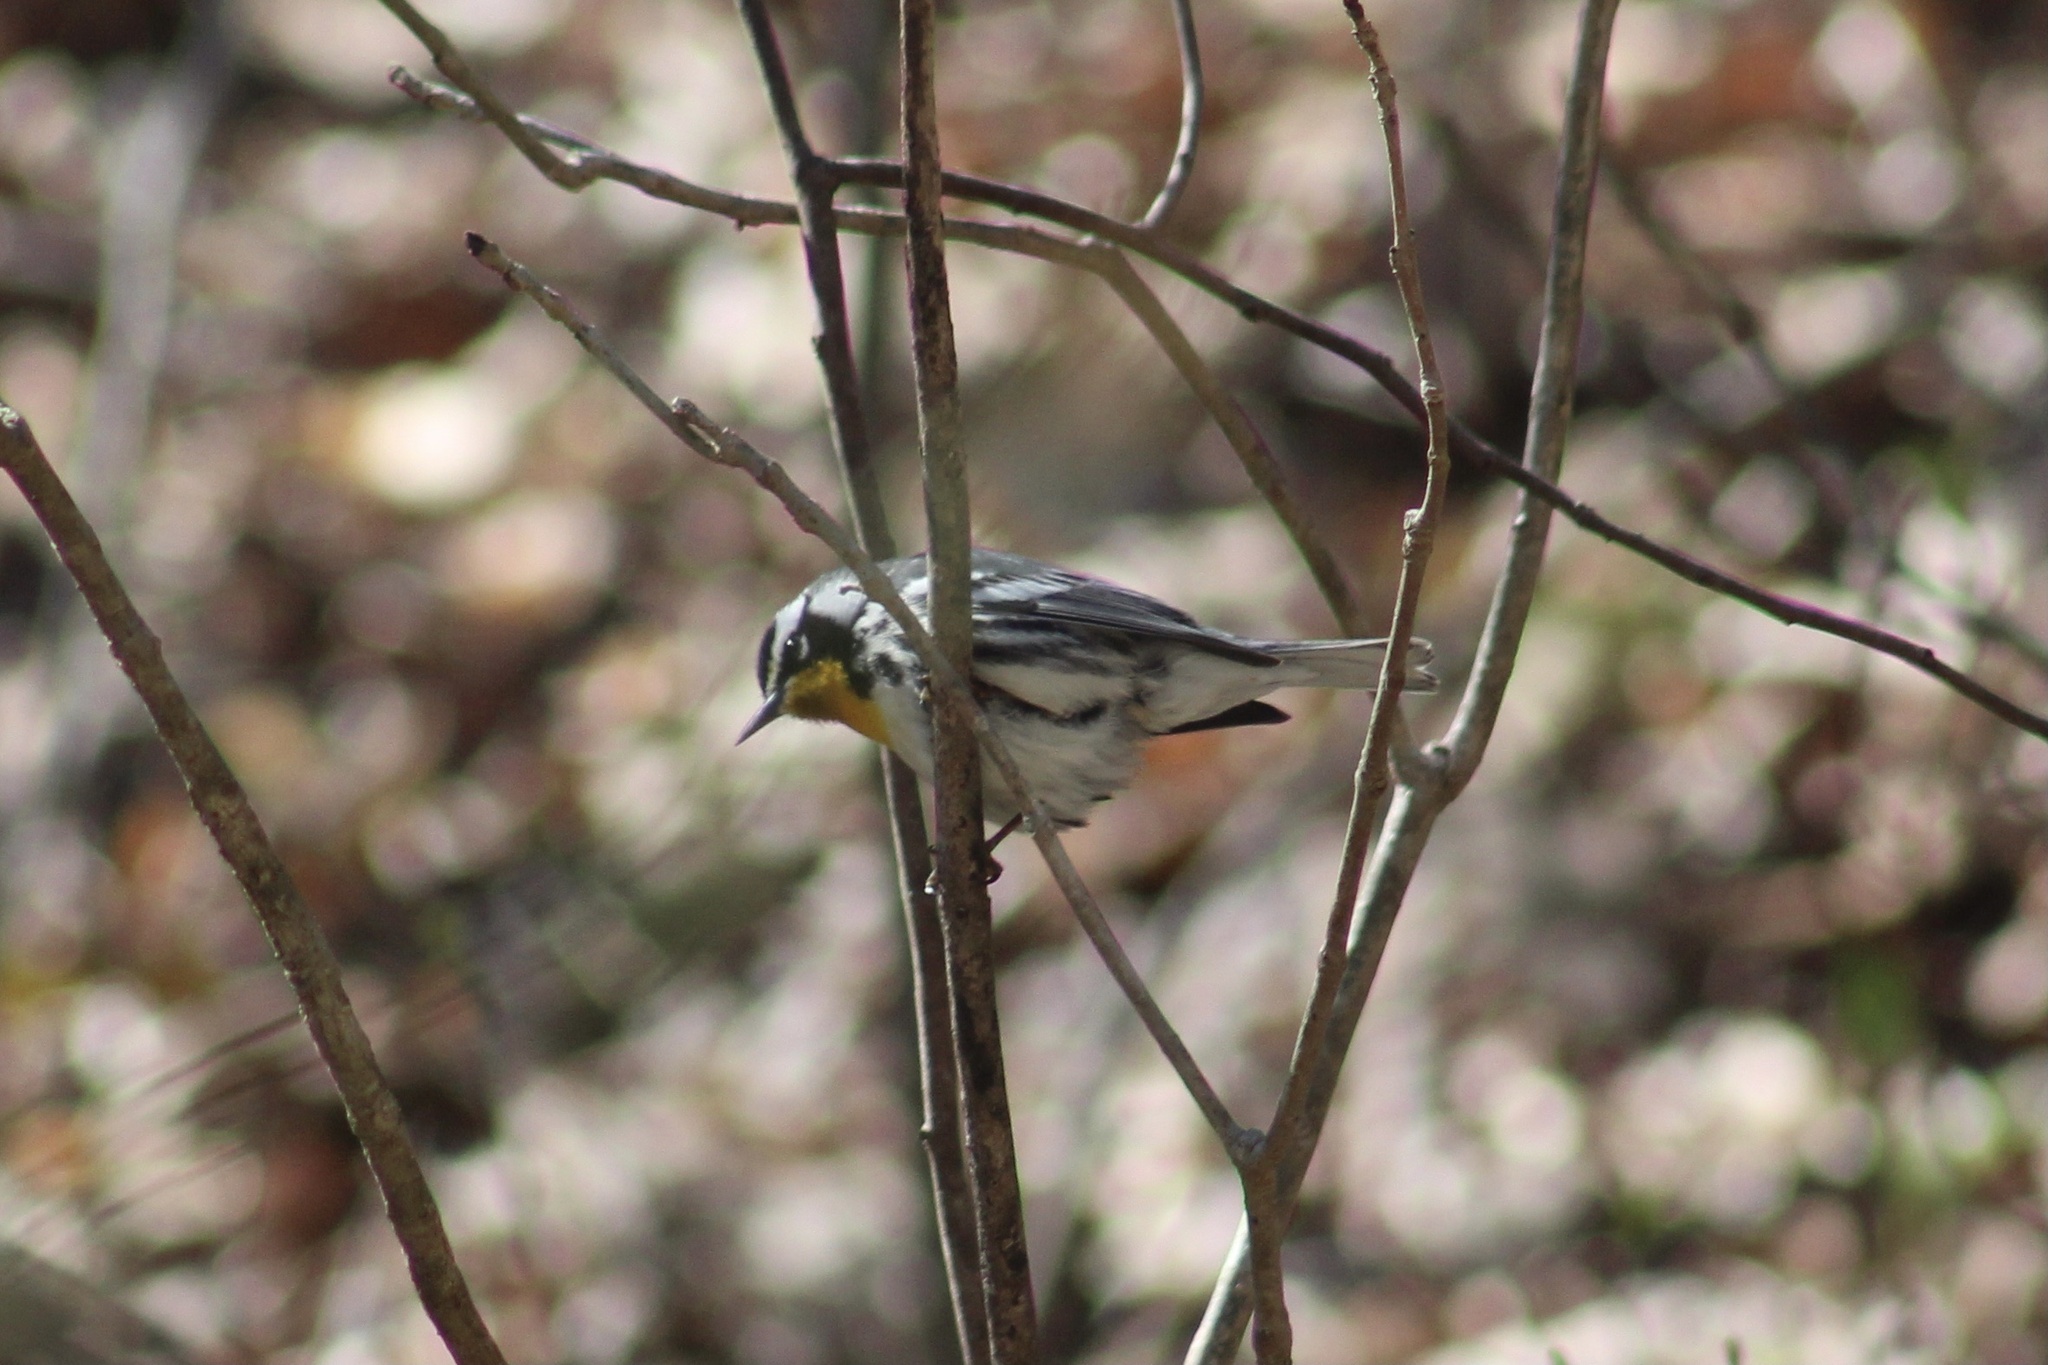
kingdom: Animalia
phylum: Chordata
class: Aves
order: Passeriformes
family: Parulidae
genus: Setophaga
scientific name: Setophaga dominica
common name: Yellow-throated warbler
